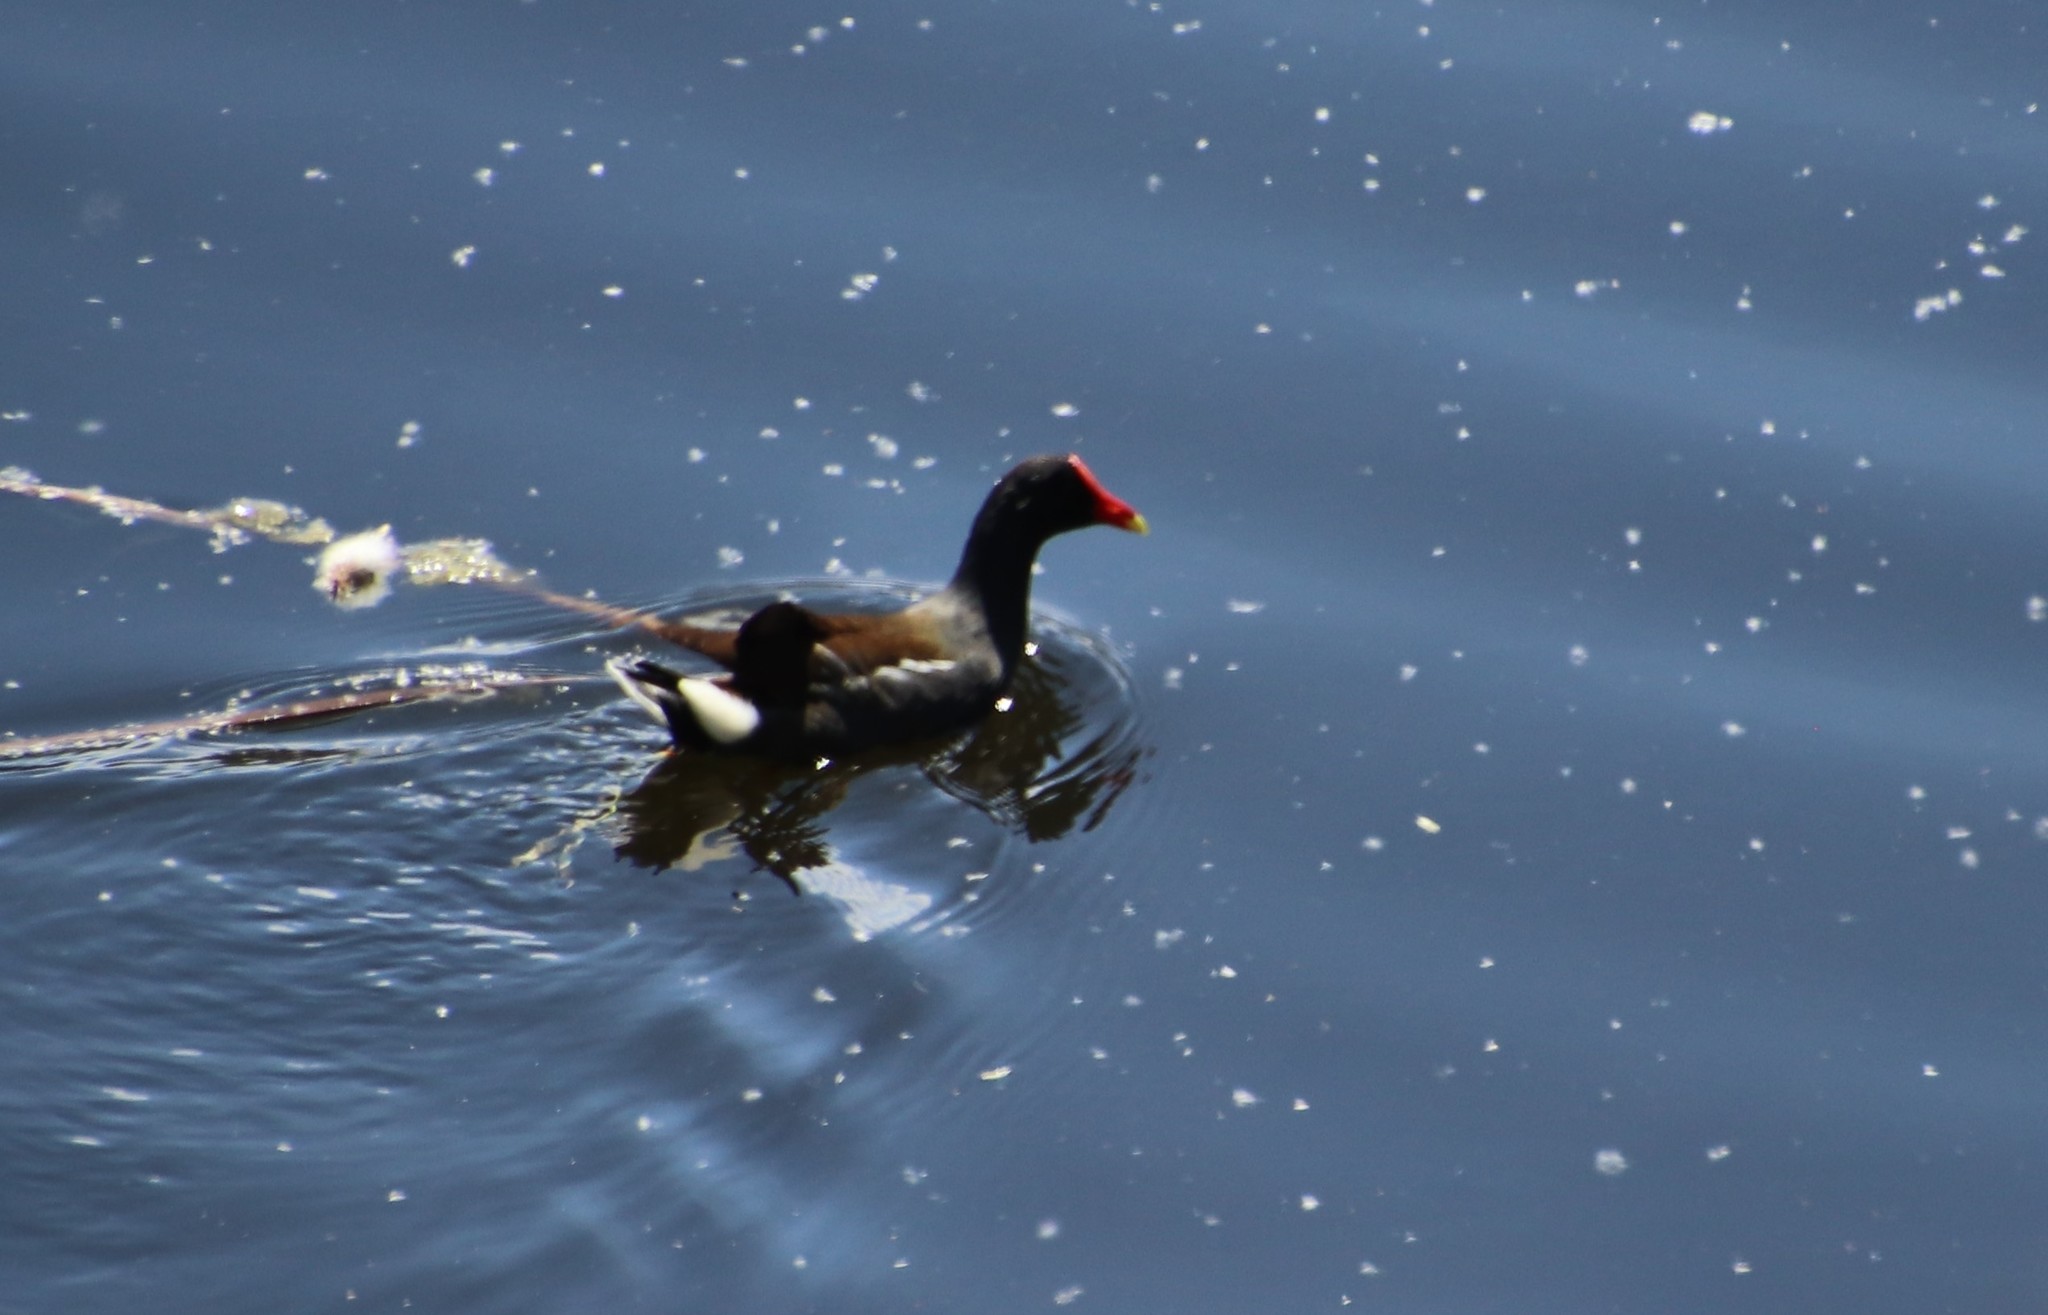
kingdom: Animalia
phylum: Chordata
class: Aves
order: Gruiformes
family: Rallidae
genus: Gallinula
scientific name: Gallinula chloropus
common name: Common moorhen
